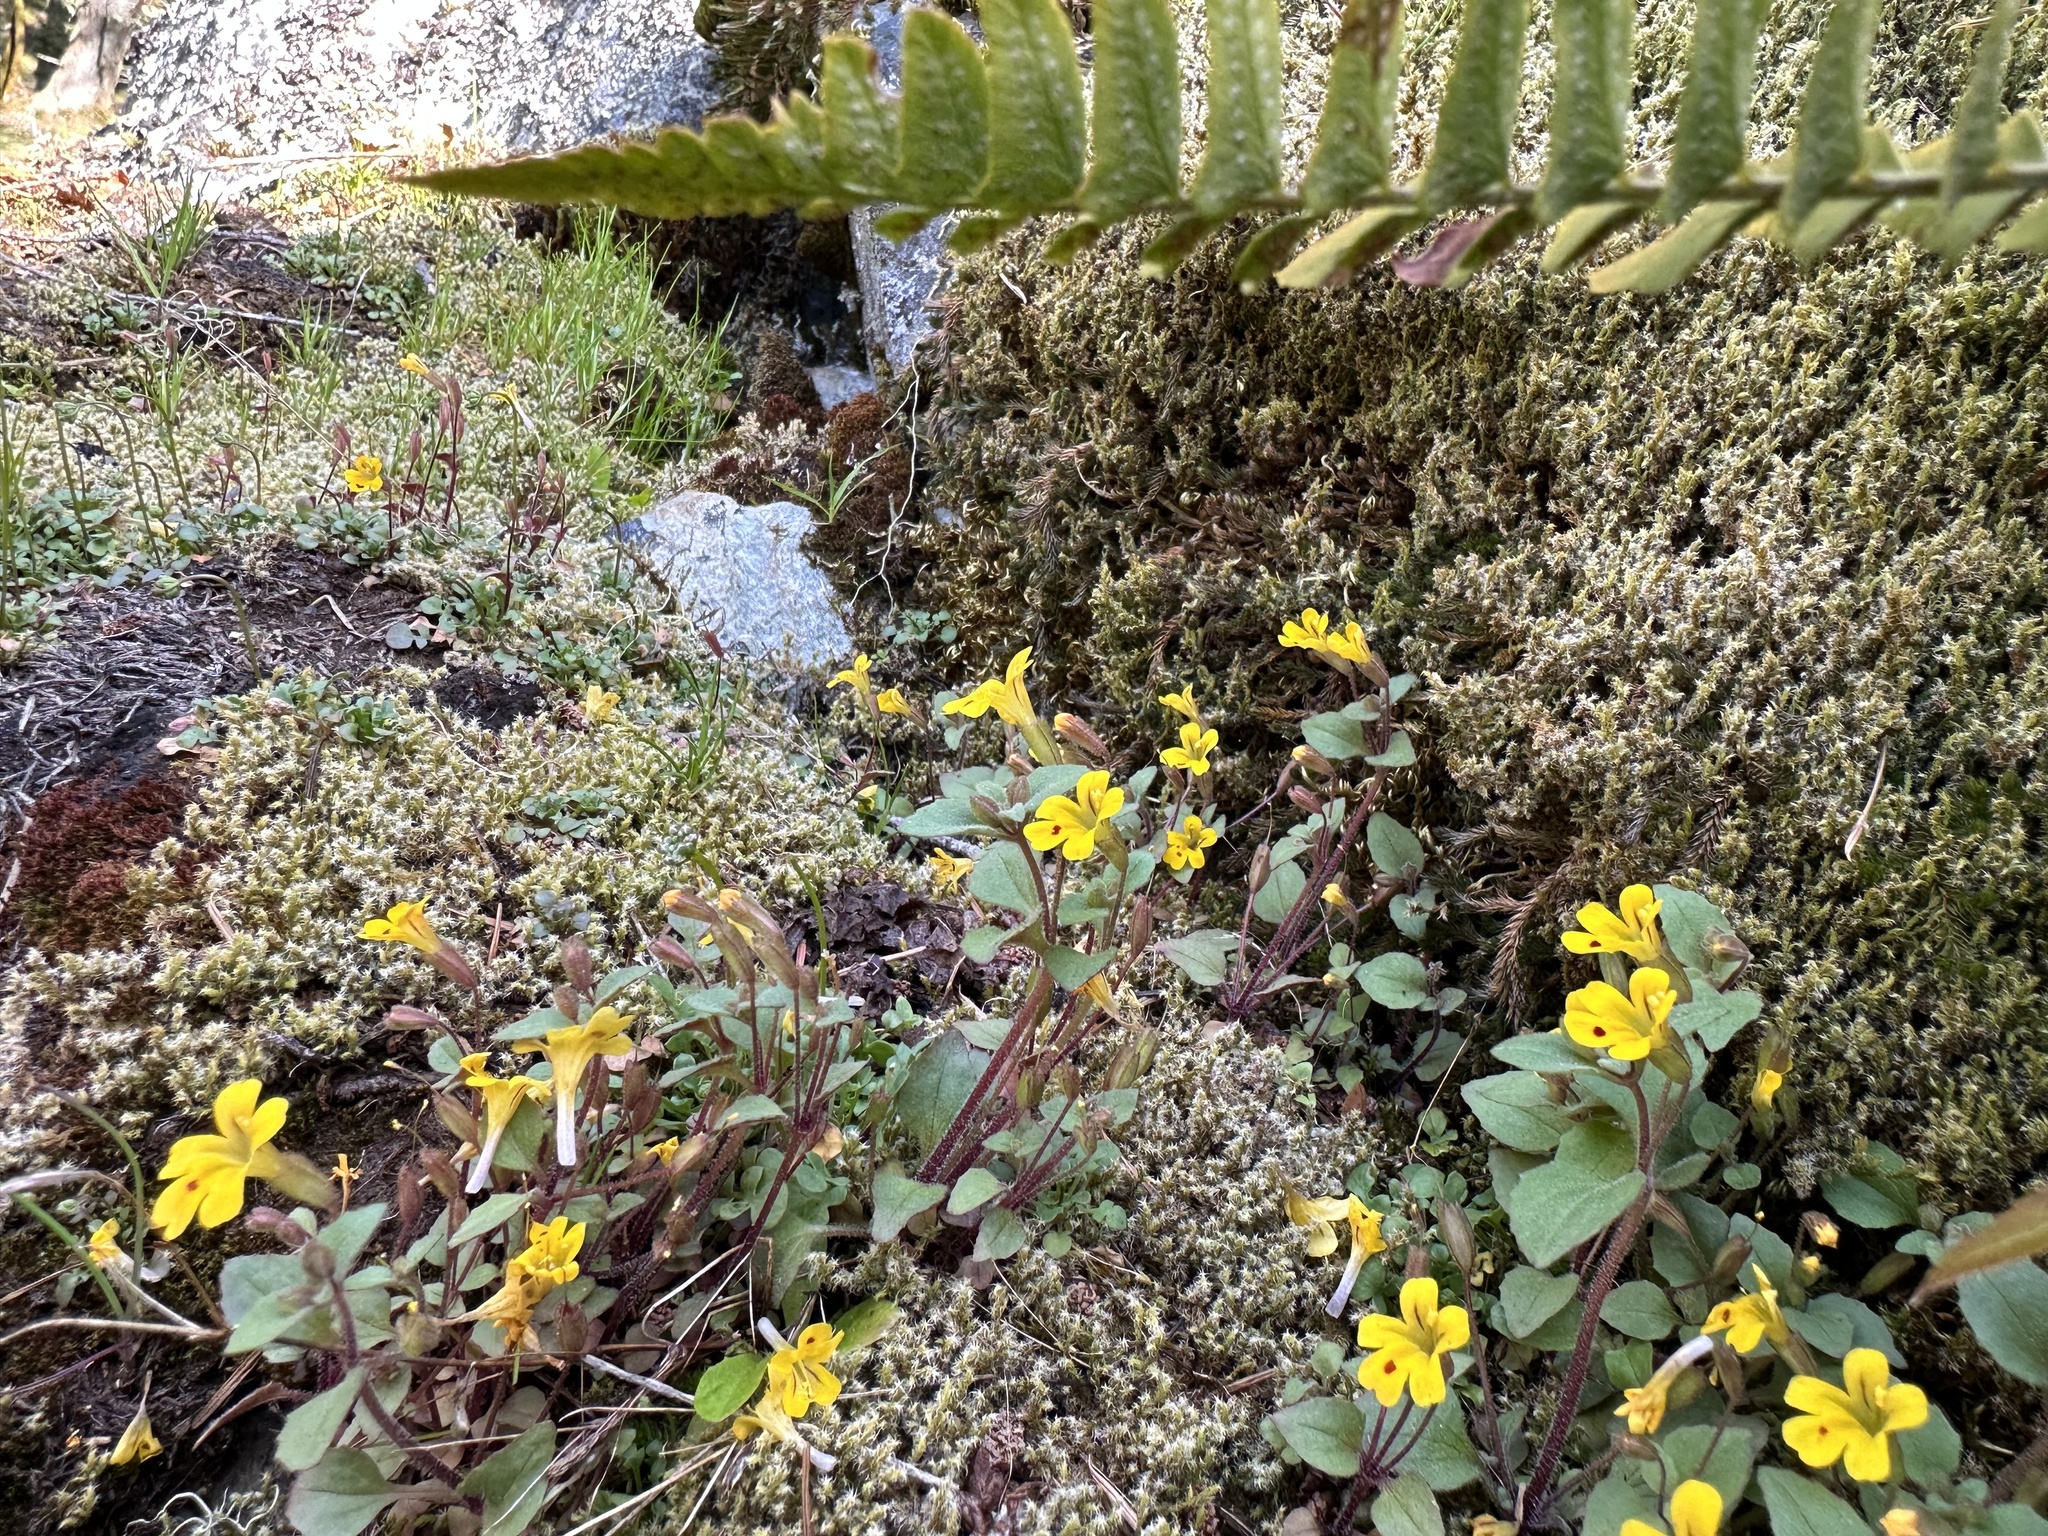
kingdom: Plantae
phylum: Tracheophyta
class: Magnoliopsida
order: Lamiales
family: Phrymaceae
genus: Erythranthe
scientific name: Erythranthe alsinoides
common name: Chickweed monkeyflower
